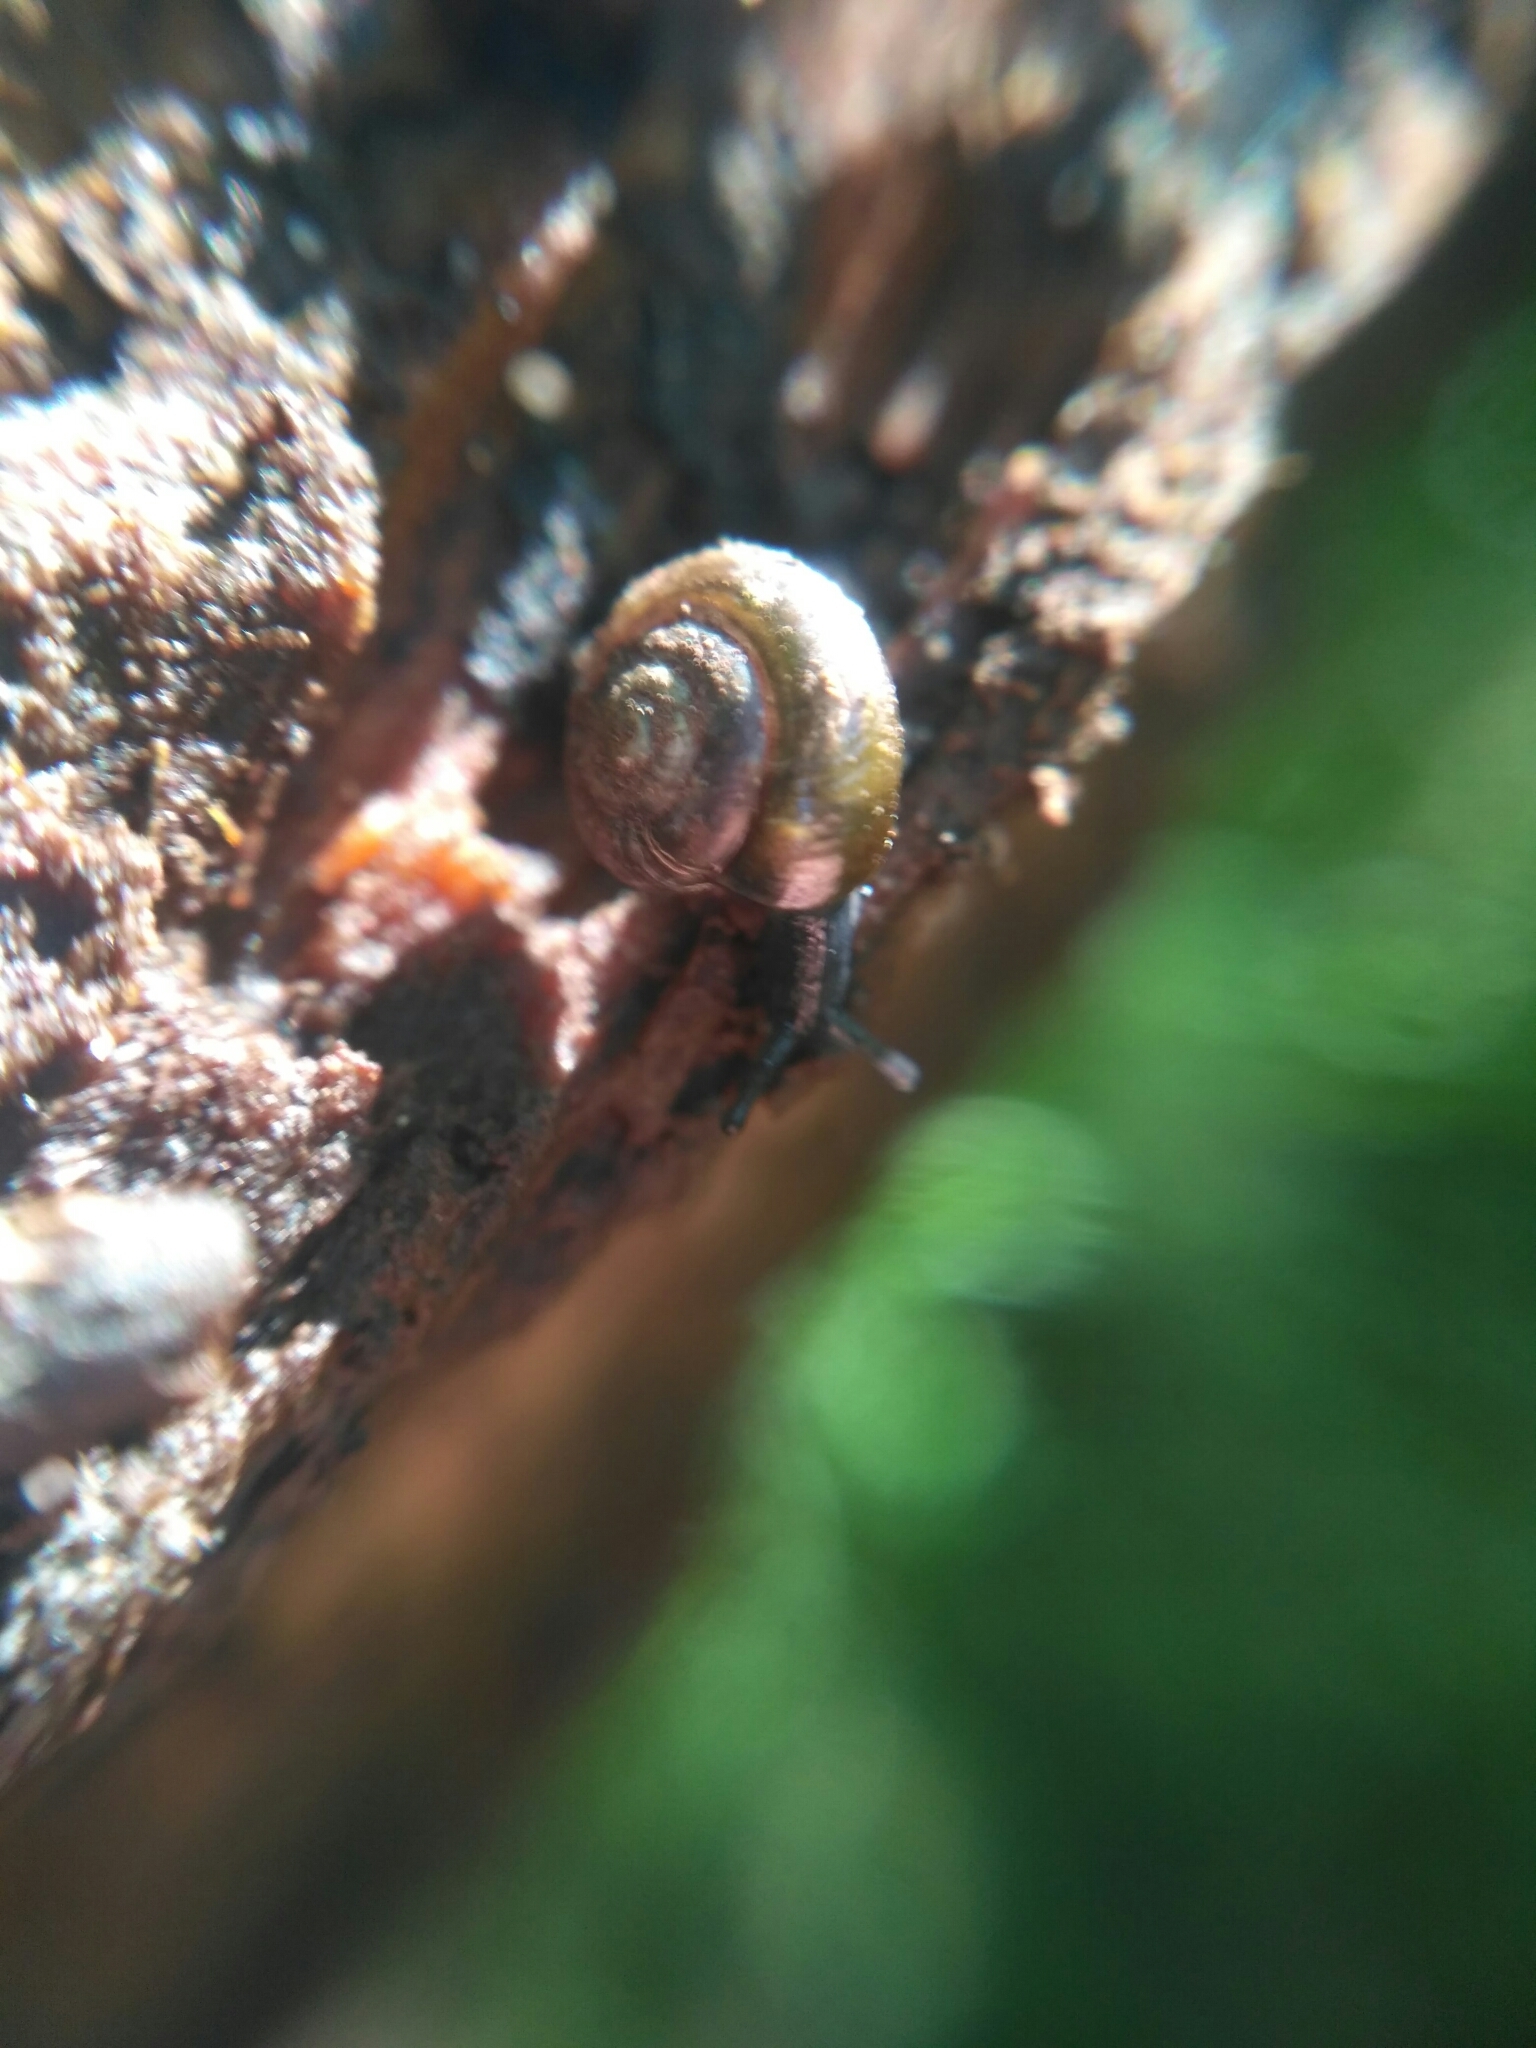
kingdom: Animalia
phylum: Mollusca
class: Gastropoda
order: Stylommatophora
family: Gastrodontidae
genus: Zonitoides
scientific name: Zonitoides nitidus
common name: Shiny glass snail
